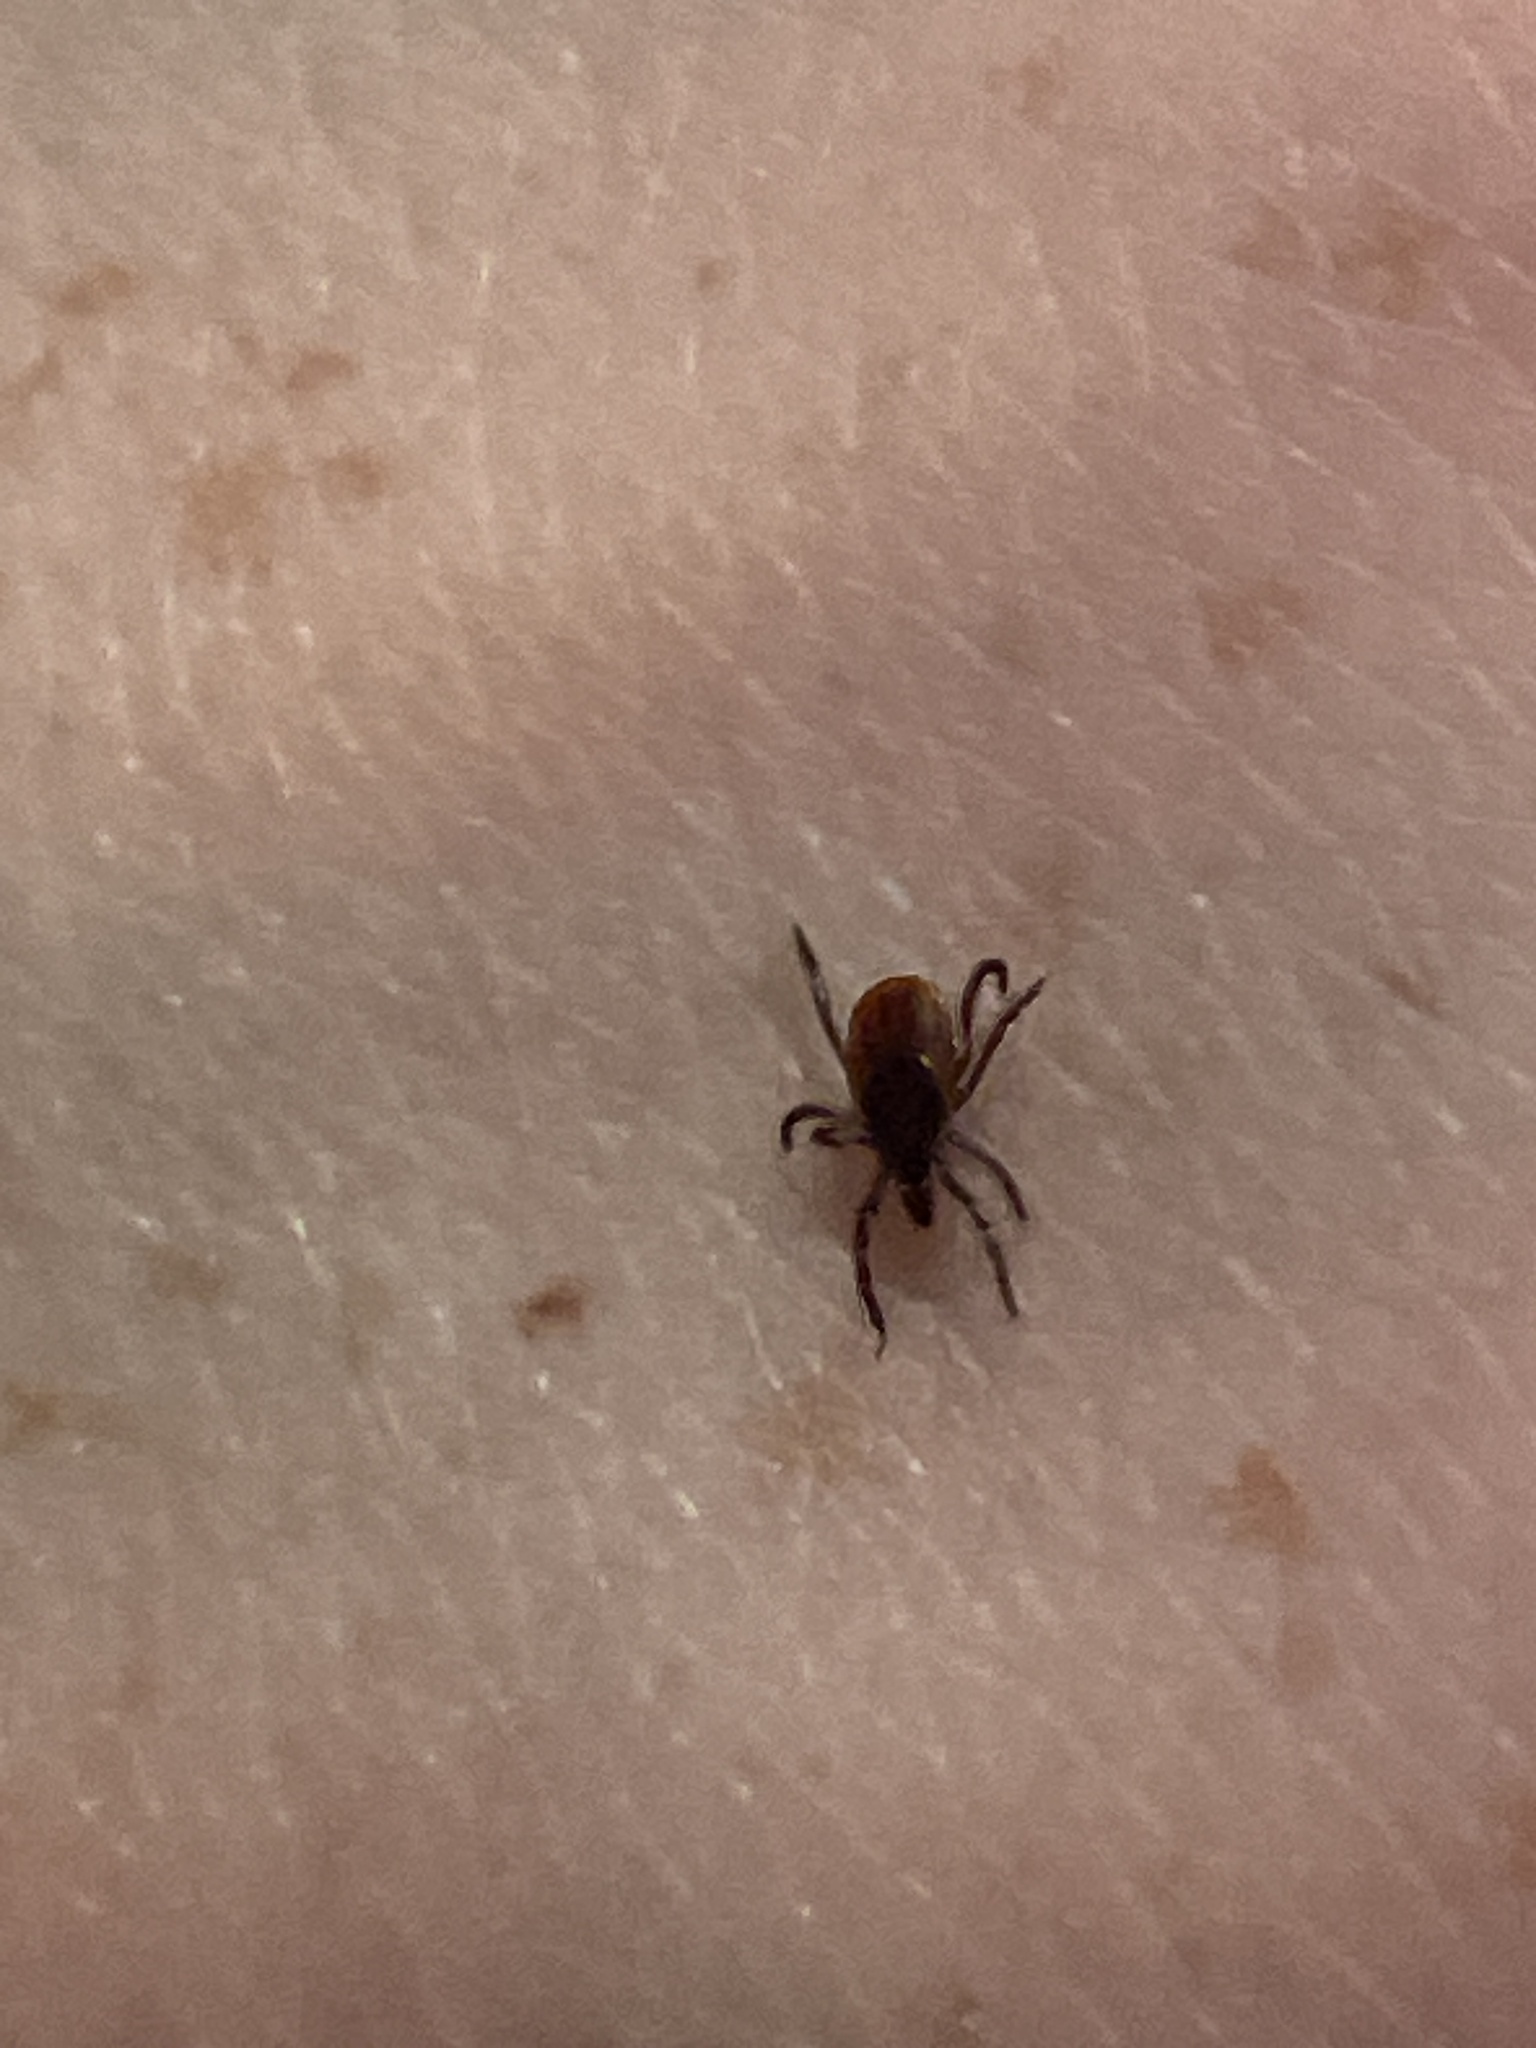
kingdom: Animalia
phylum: Arthropoda
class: Arachnida
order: Ixodida
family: Ixodidae
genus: Ixodes
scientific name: Ixodes scapularis
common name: Black legged tick
